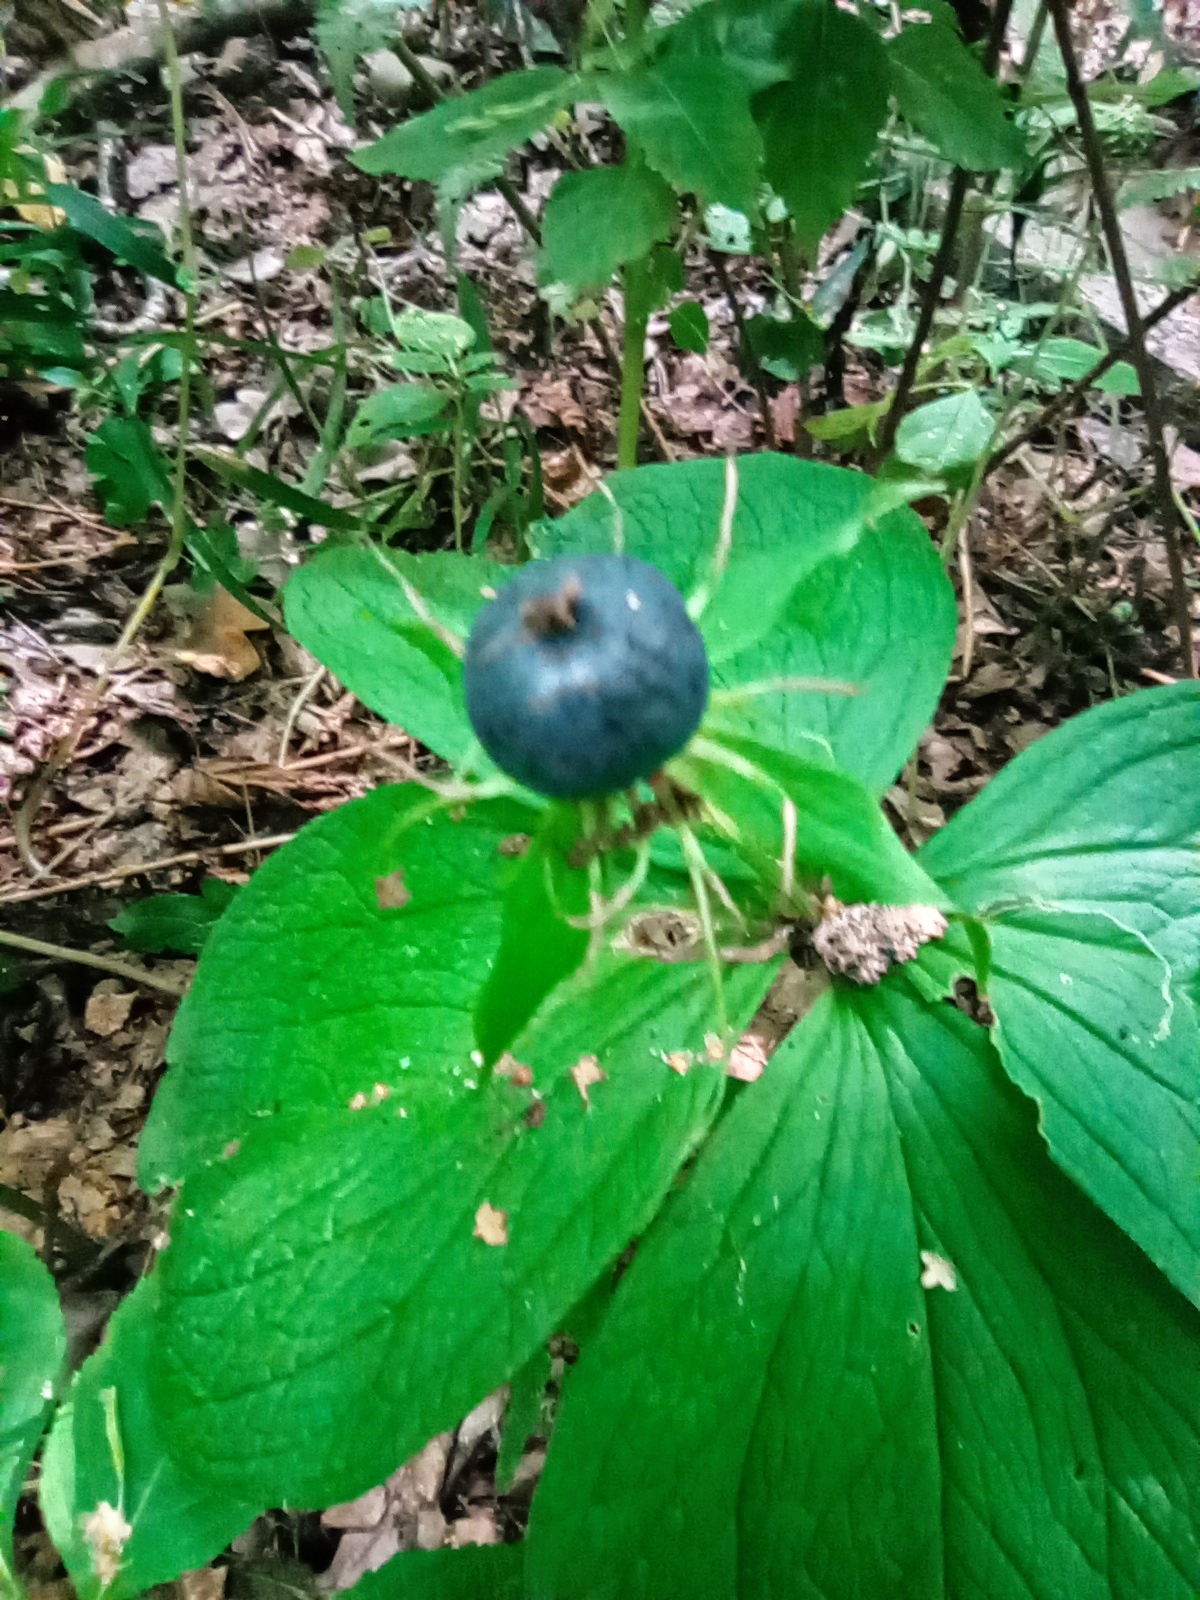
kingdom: Plantae
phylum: Tracheophyta
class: Liliopsida
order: Liliales
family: Melanthiaceae
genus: Paris
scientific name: Paris quadrifolia
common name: Herb-paris
